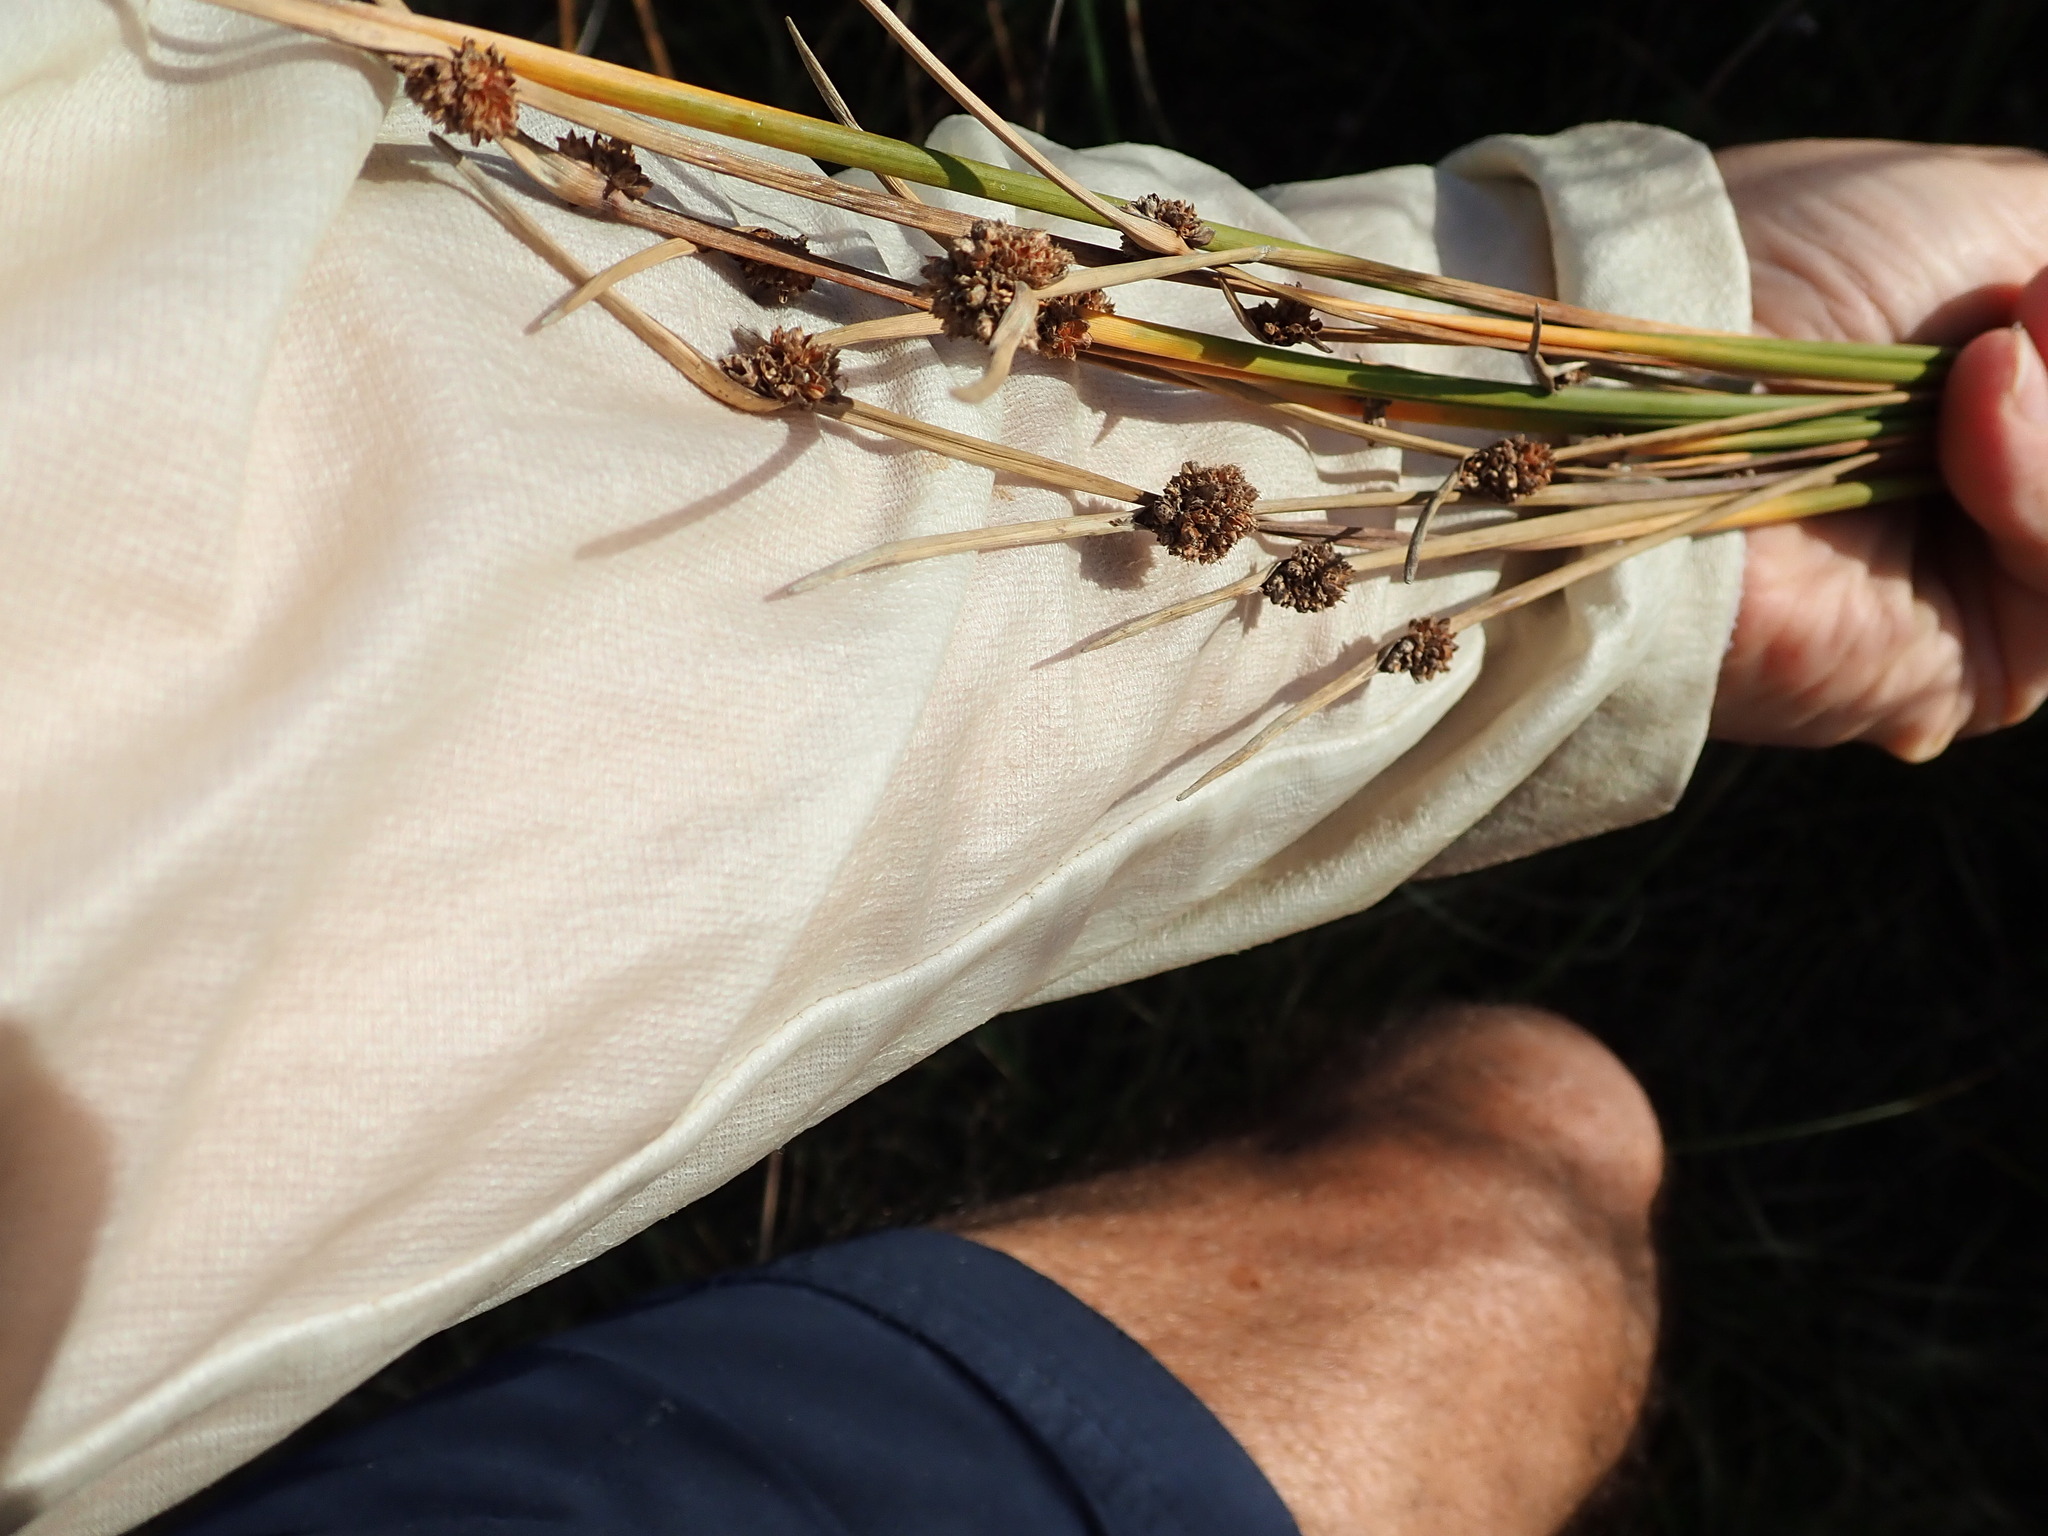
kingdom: Plantae
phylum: Tracheophyta
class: Liliopsida
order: Poales
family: Cyperaceae
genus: Ficinia
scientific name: Ficinia nodosa
